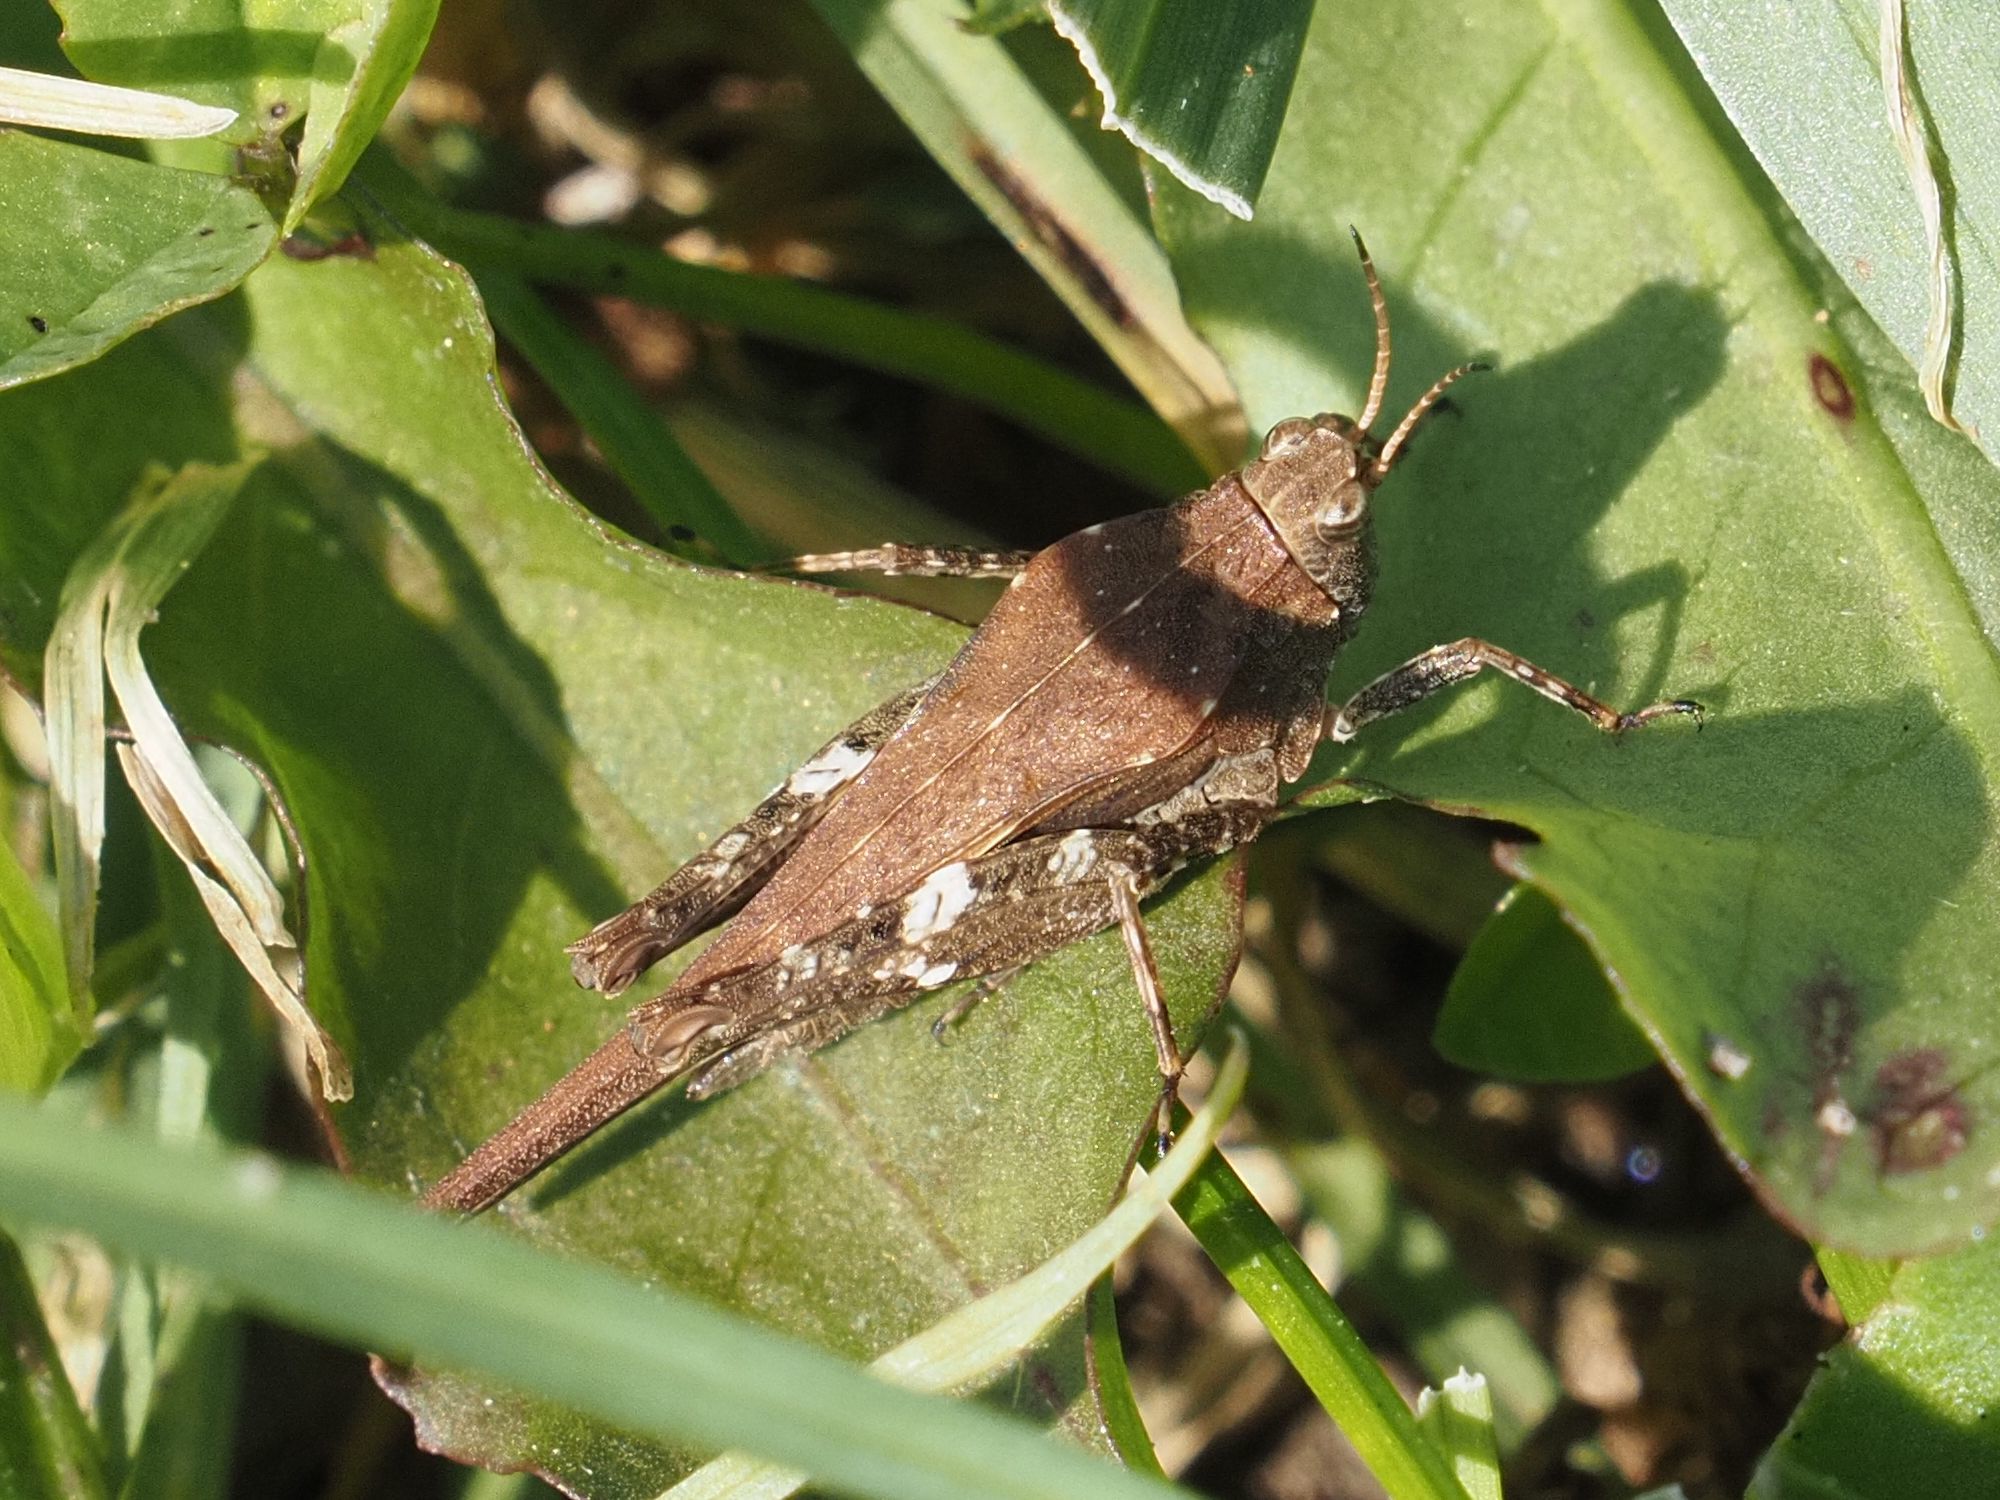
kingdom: Animalia
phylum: Arthropoda
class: Insecta
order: Orthoptera
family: Tetrigidae
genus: Tetrix
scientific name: Tetrix subulata
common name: Slender ground-hopper
